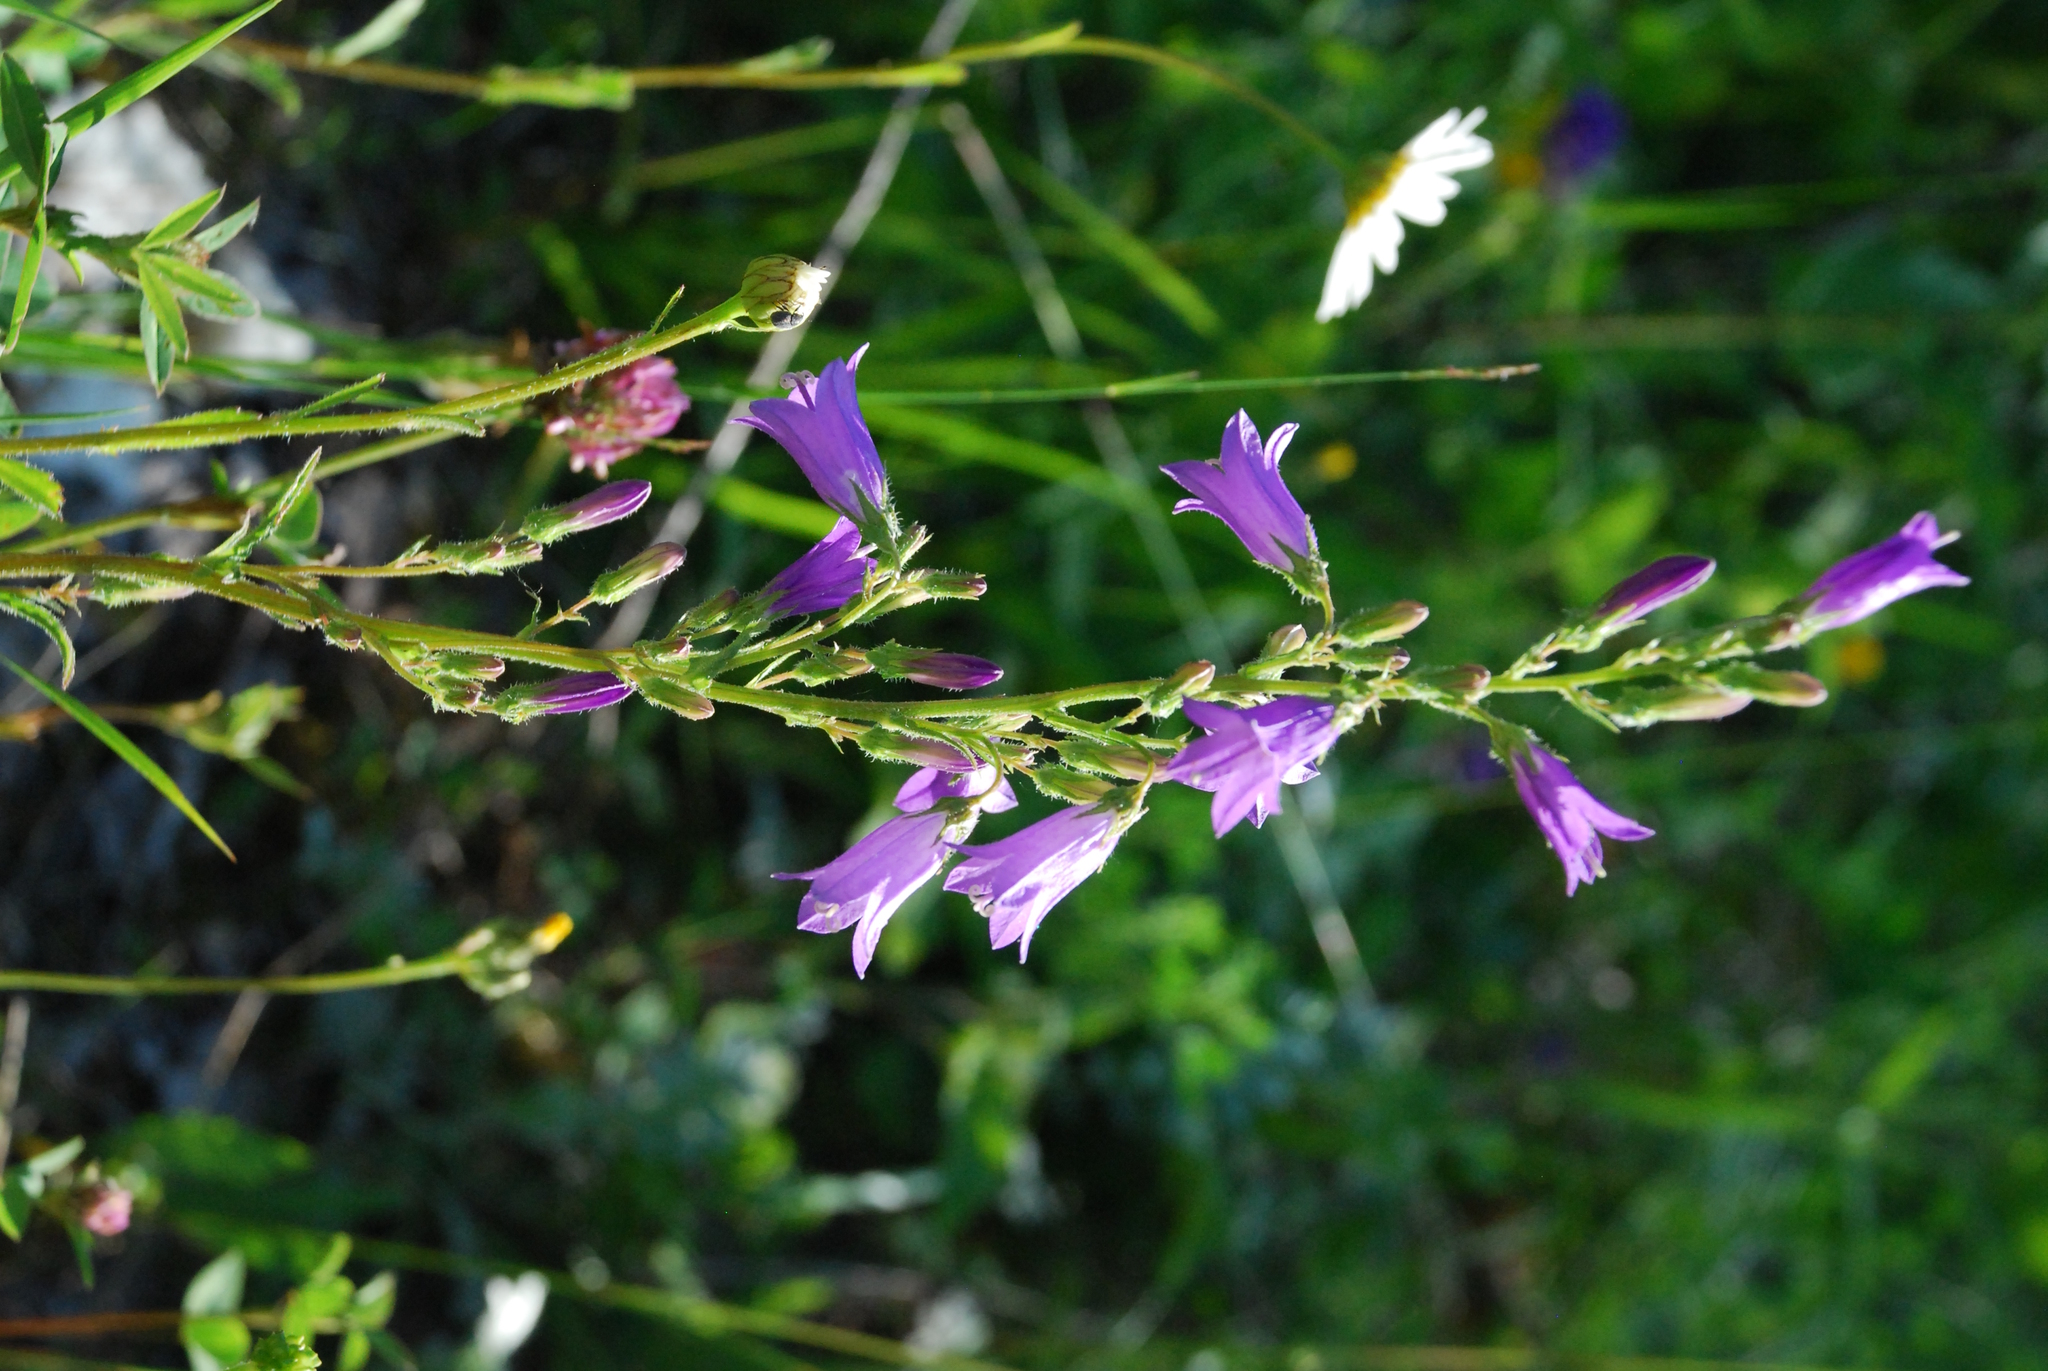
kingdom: Plantae
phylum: Tracheophyta
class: Magnoliopsida
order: Asterales
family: Campanulaceae
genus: Campanula
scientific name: Campanula sibirica
